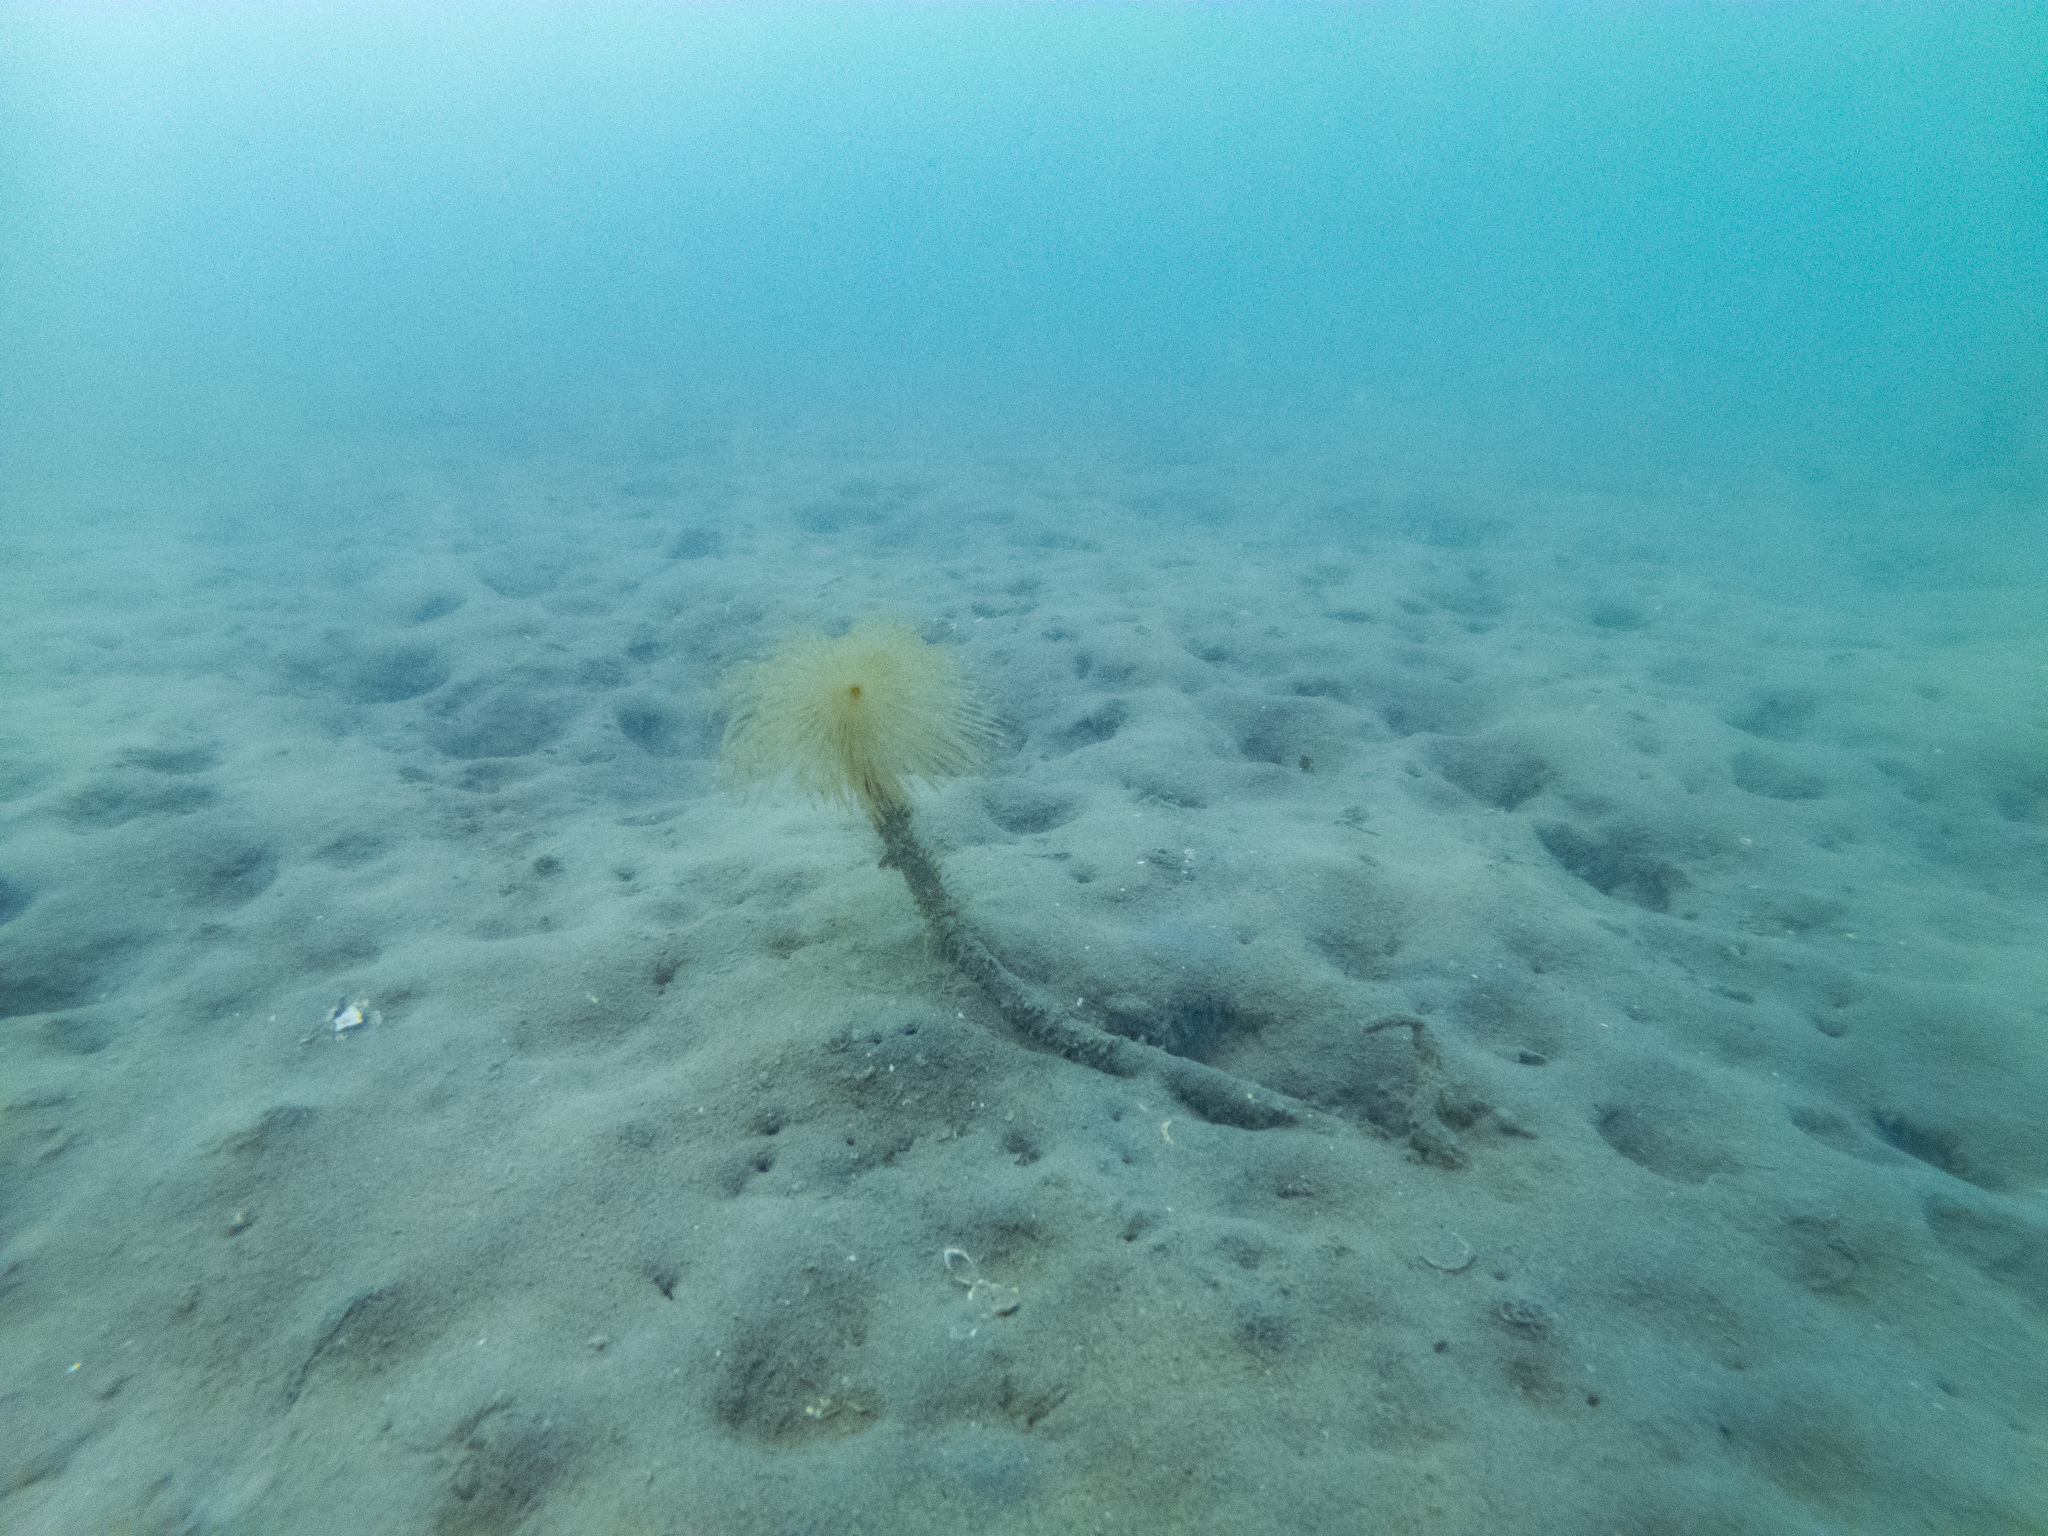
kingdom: Animalia
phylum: Annelida
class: Polychaeta
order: Sabellida
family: Sabellidae
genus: Sabella
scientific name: Sabella spallanzanii
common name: Feather duster worm
